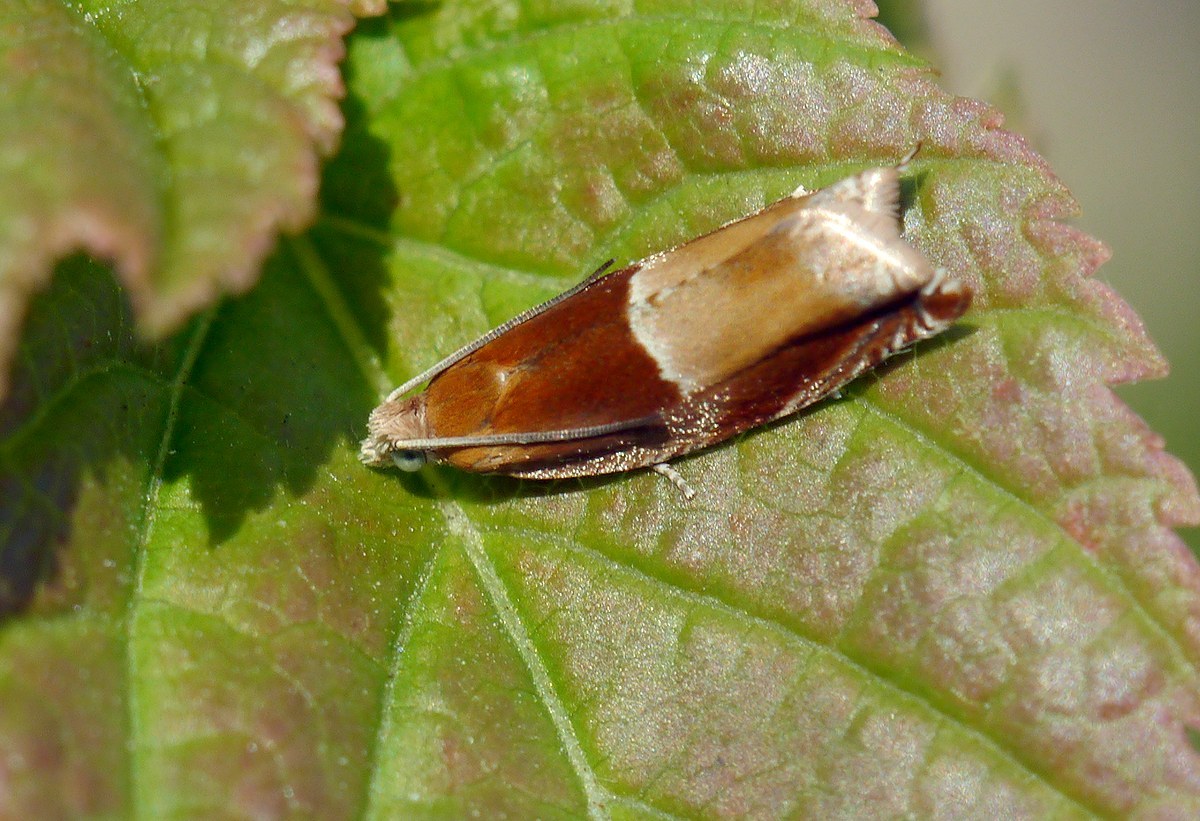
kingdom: Animalia
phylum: Arthropoda
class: Insecta
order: Lepidoptera
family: Tortricidae
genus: Ancylis
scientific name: Ancylis mitterbacheriana
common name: Red roller
